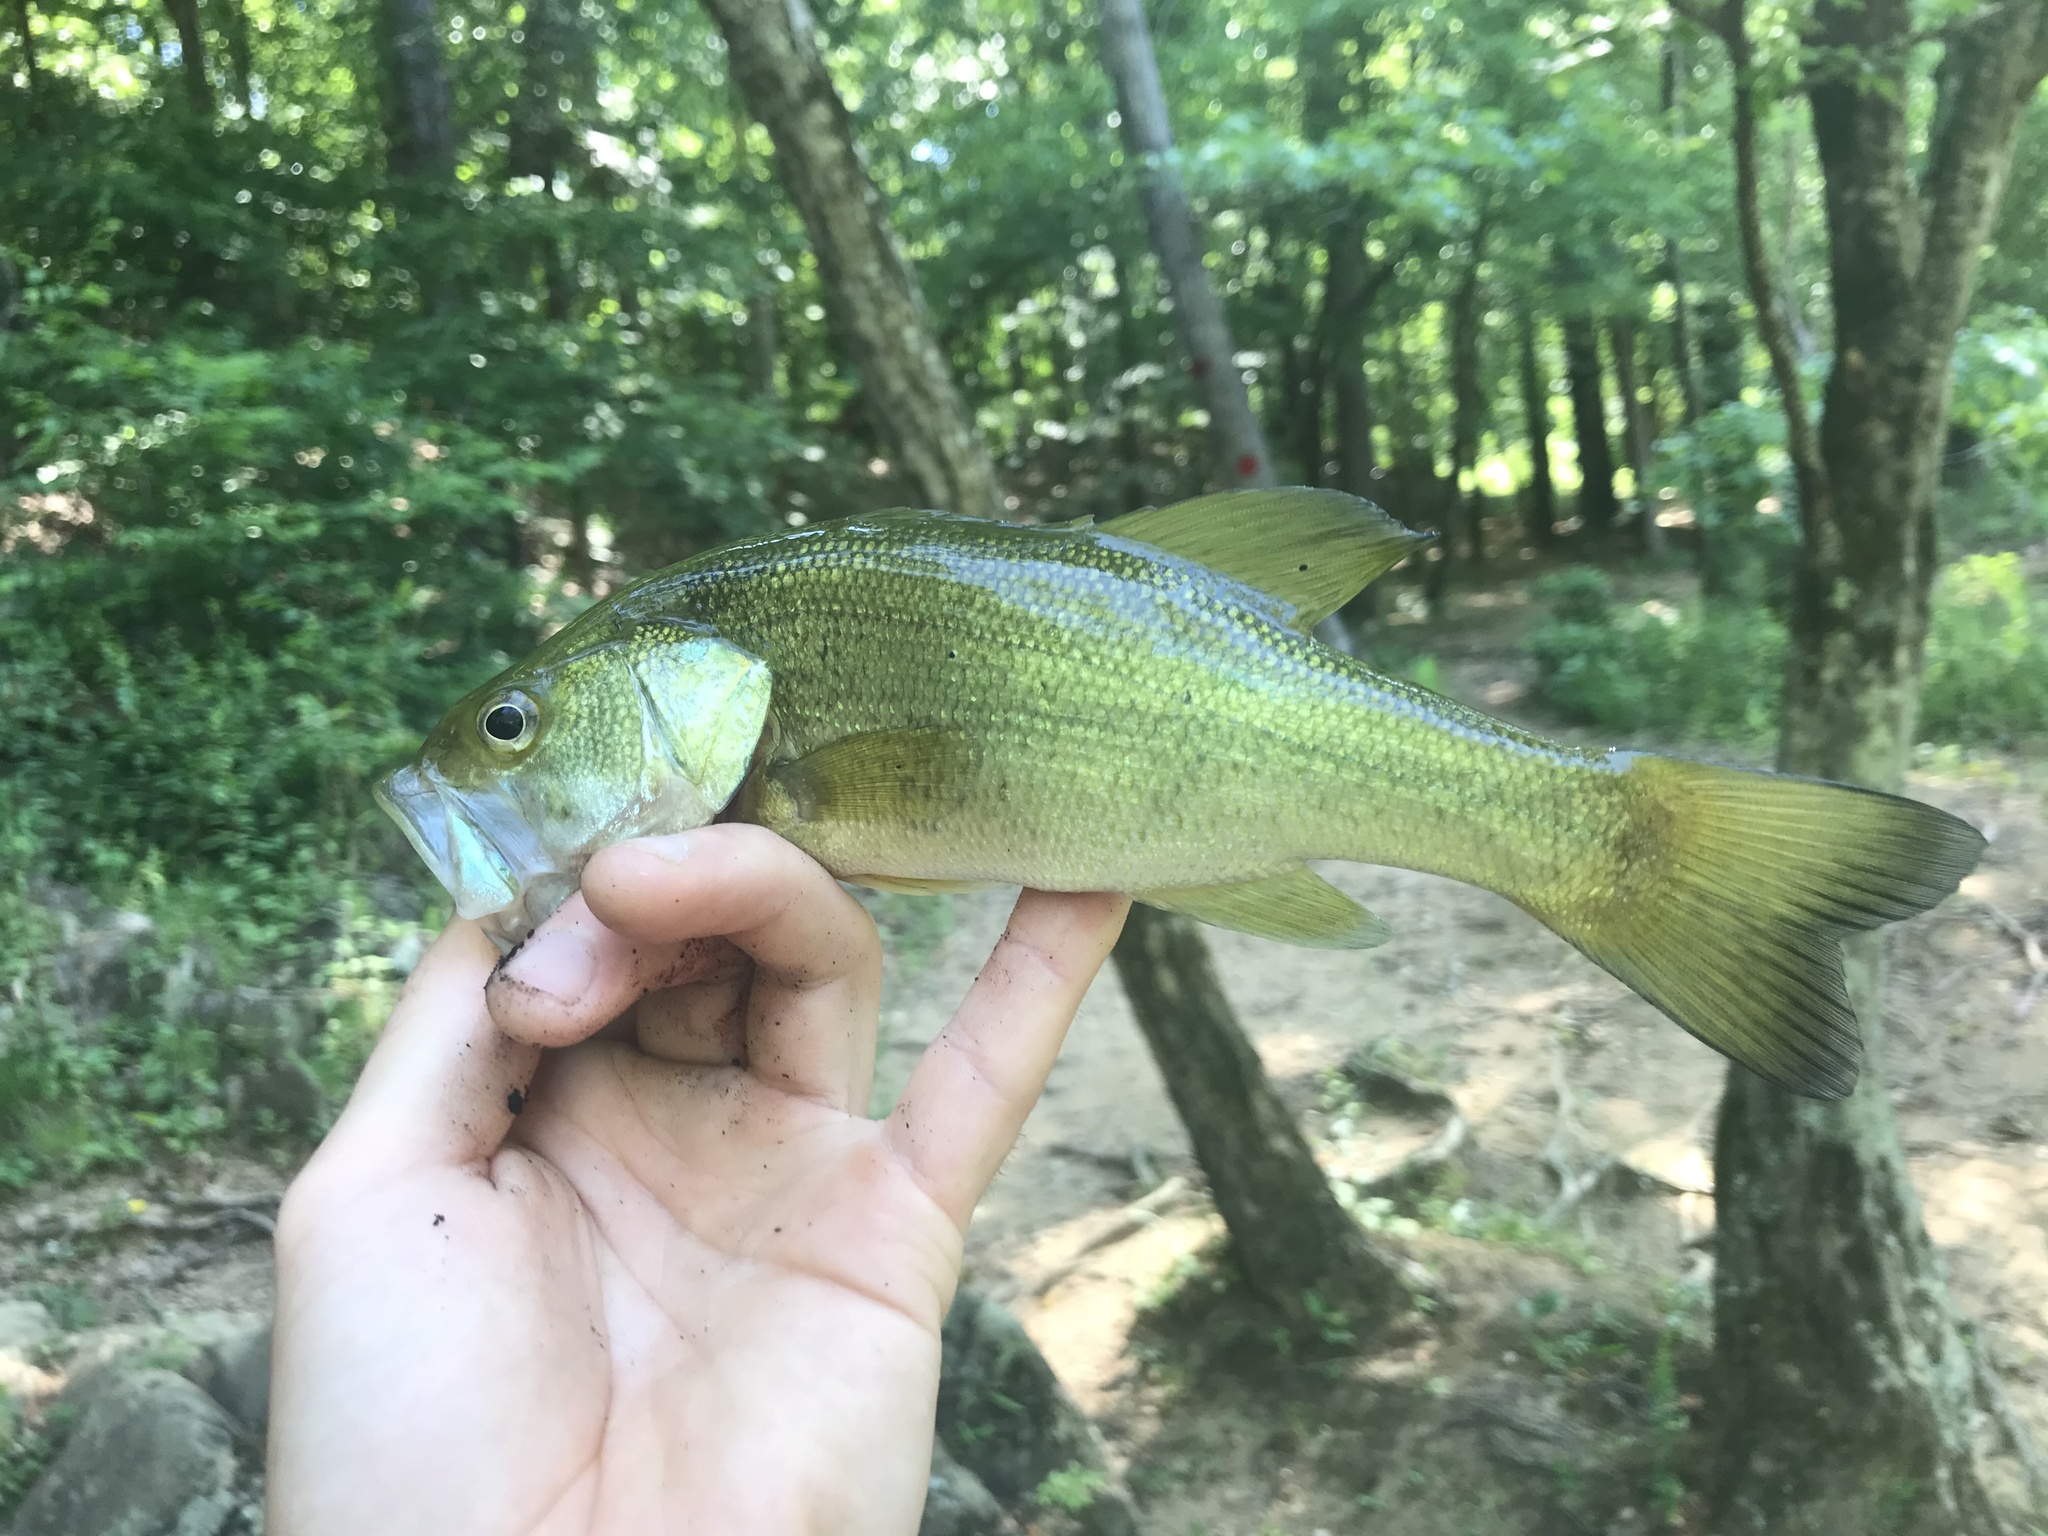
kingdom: Animalia
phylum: Chordata
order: Perciformes
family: Centrarchidae
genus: Micropterus
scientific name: Micropterus salmoides
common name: Largemouth bass
